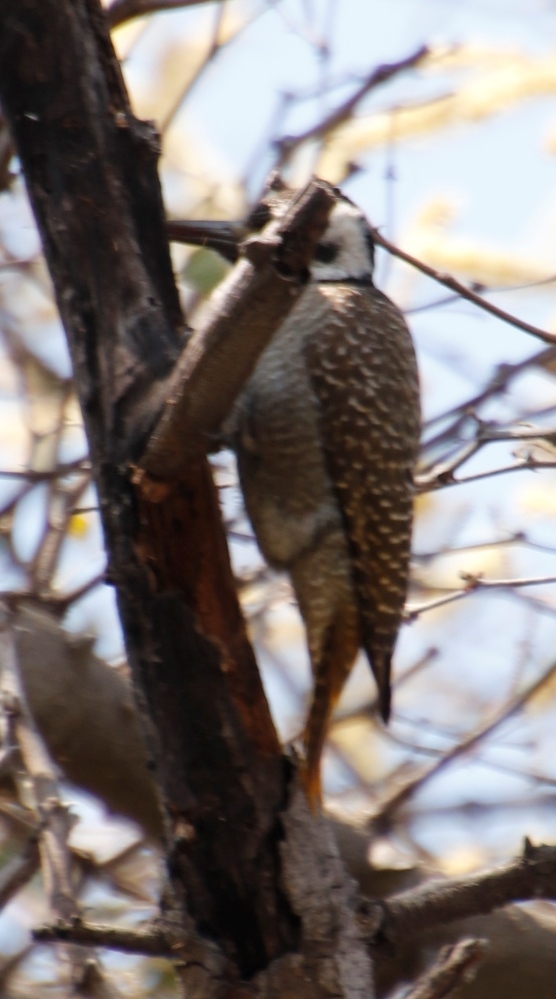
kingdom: Animalia
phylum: Chordata
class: Aves
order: Piciformes
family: Picidae
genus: Chloropicus
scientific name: Chloropicus namaquus
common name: Bearded woodpecker
